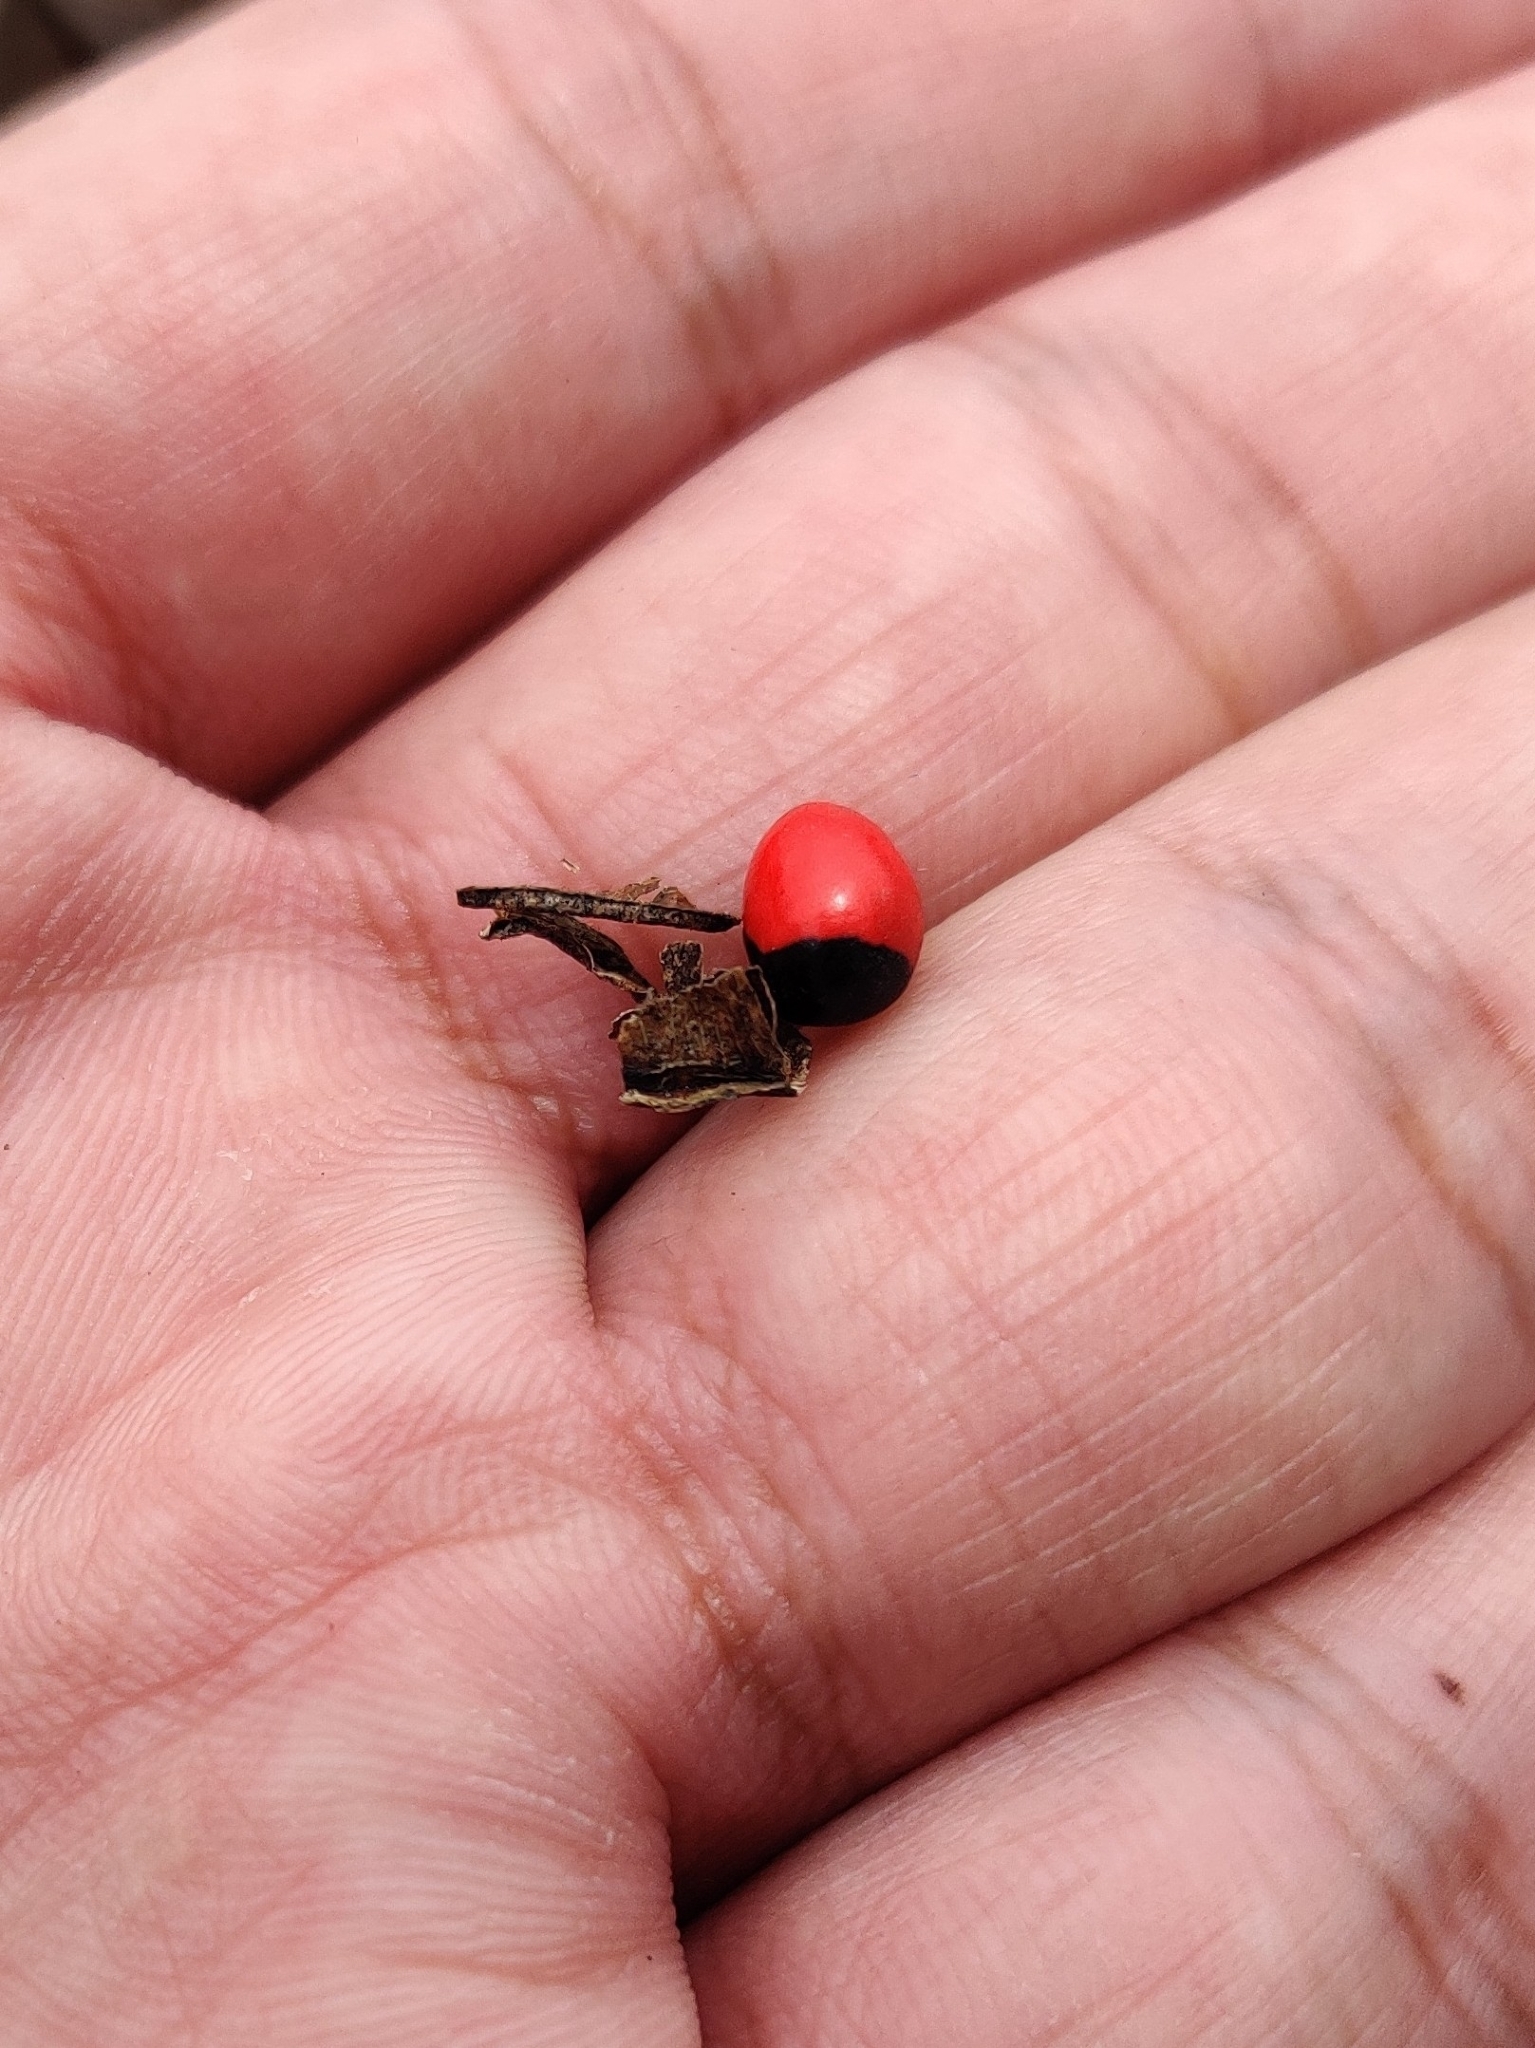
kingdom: Plantae
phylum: Tracheophyta
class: Magnoliopsida
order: Fabales
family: Fabaceae
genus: Abrus
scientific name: Abrus precatorius
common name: Rosarypea
